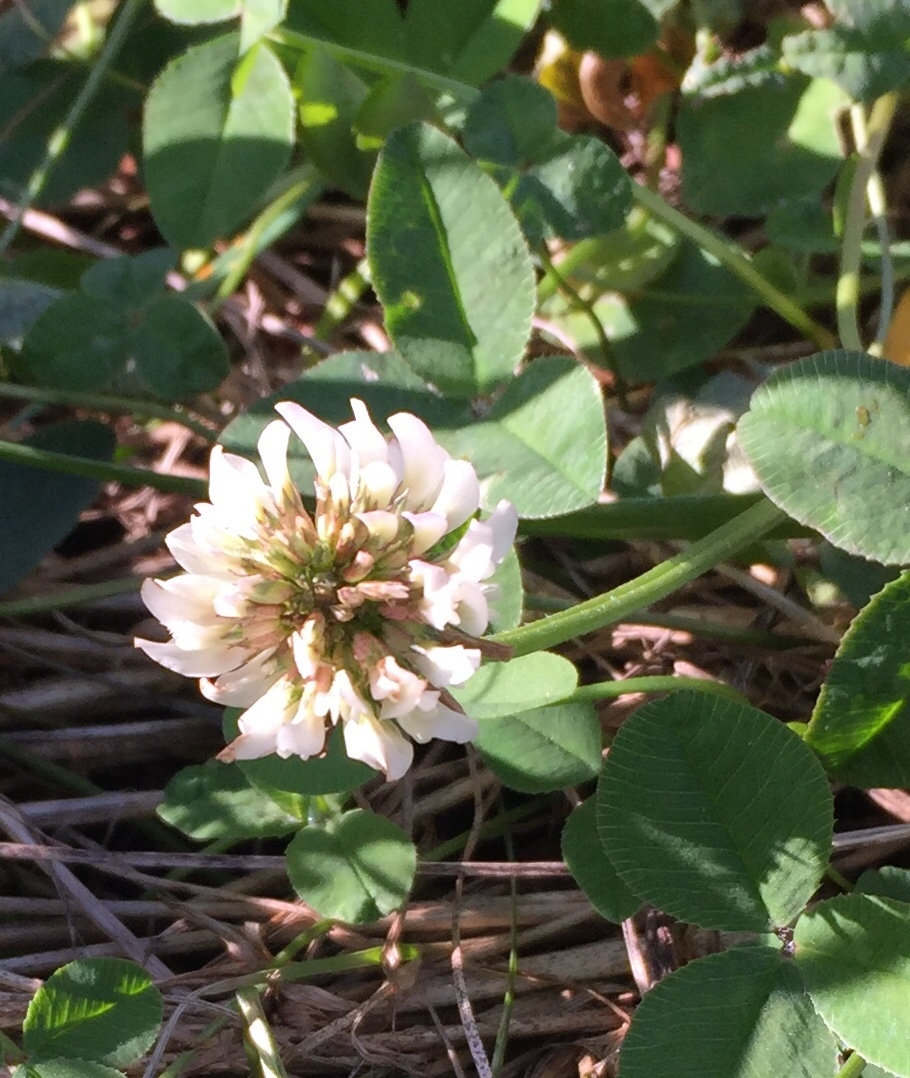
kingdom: Plantae
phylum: Tracheophyta
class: Magnoliopsida
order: Fabales
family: Fabaceae
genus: Trifolium
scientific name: Trifolium repens
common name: White clover
